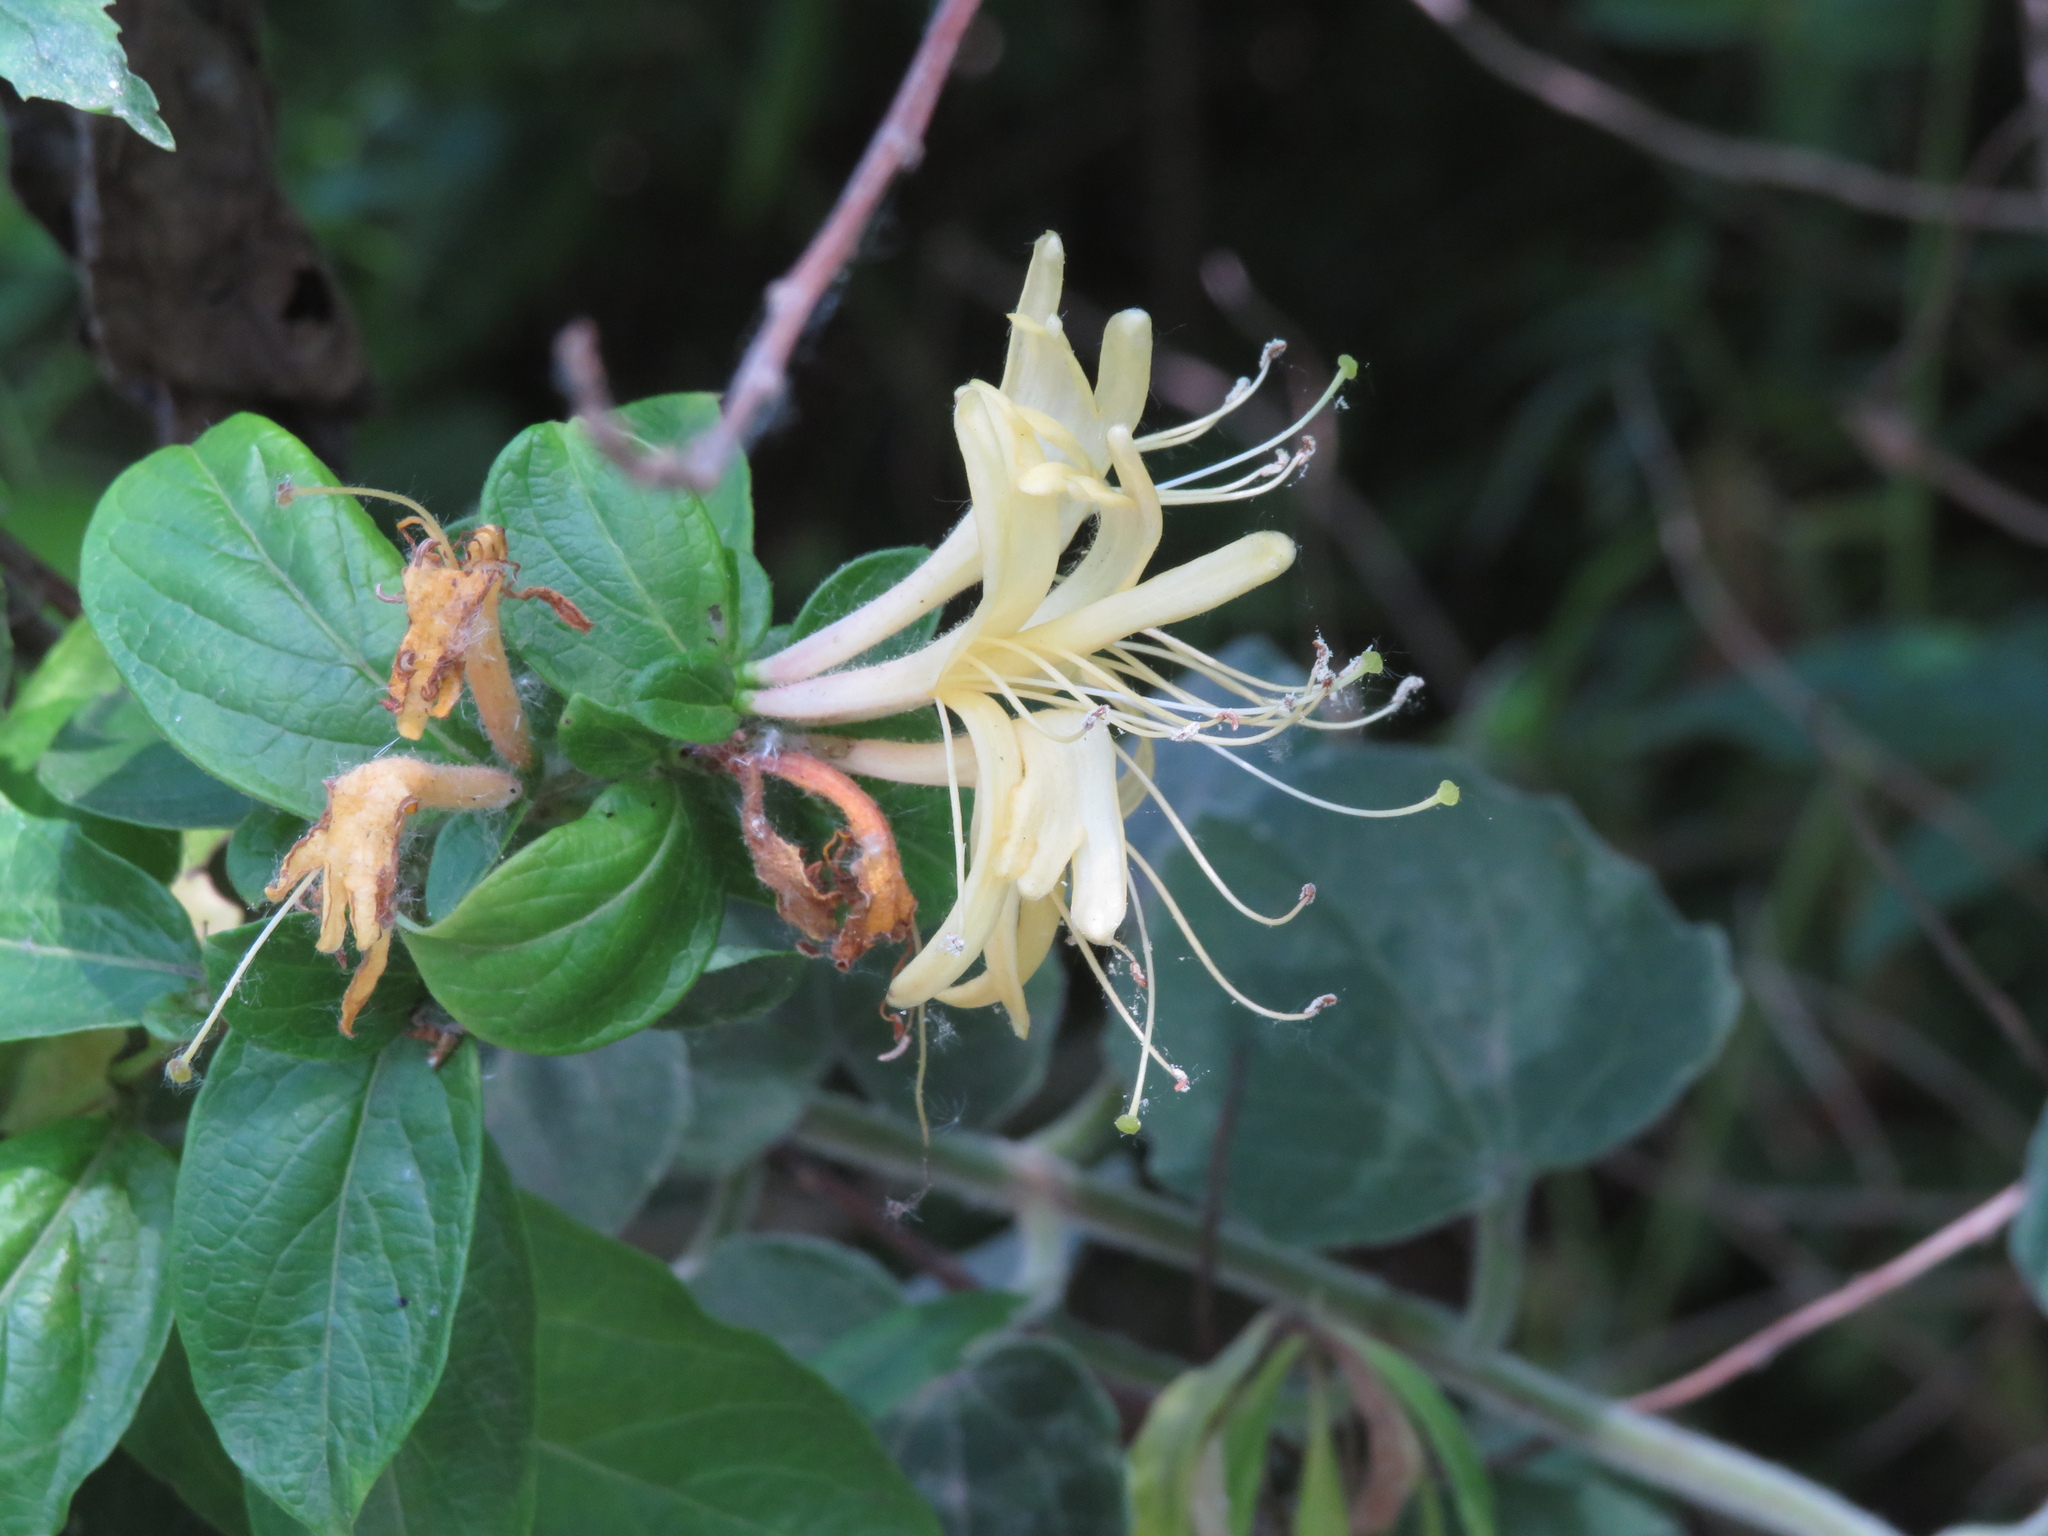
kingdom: Plantae
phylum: Tracheophyta
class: Magnoliopsida
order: Dipsacales
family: Caprifoliaceae
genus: Lonicera
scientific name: Lonicera japonica
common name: Japanese honeysuckle
